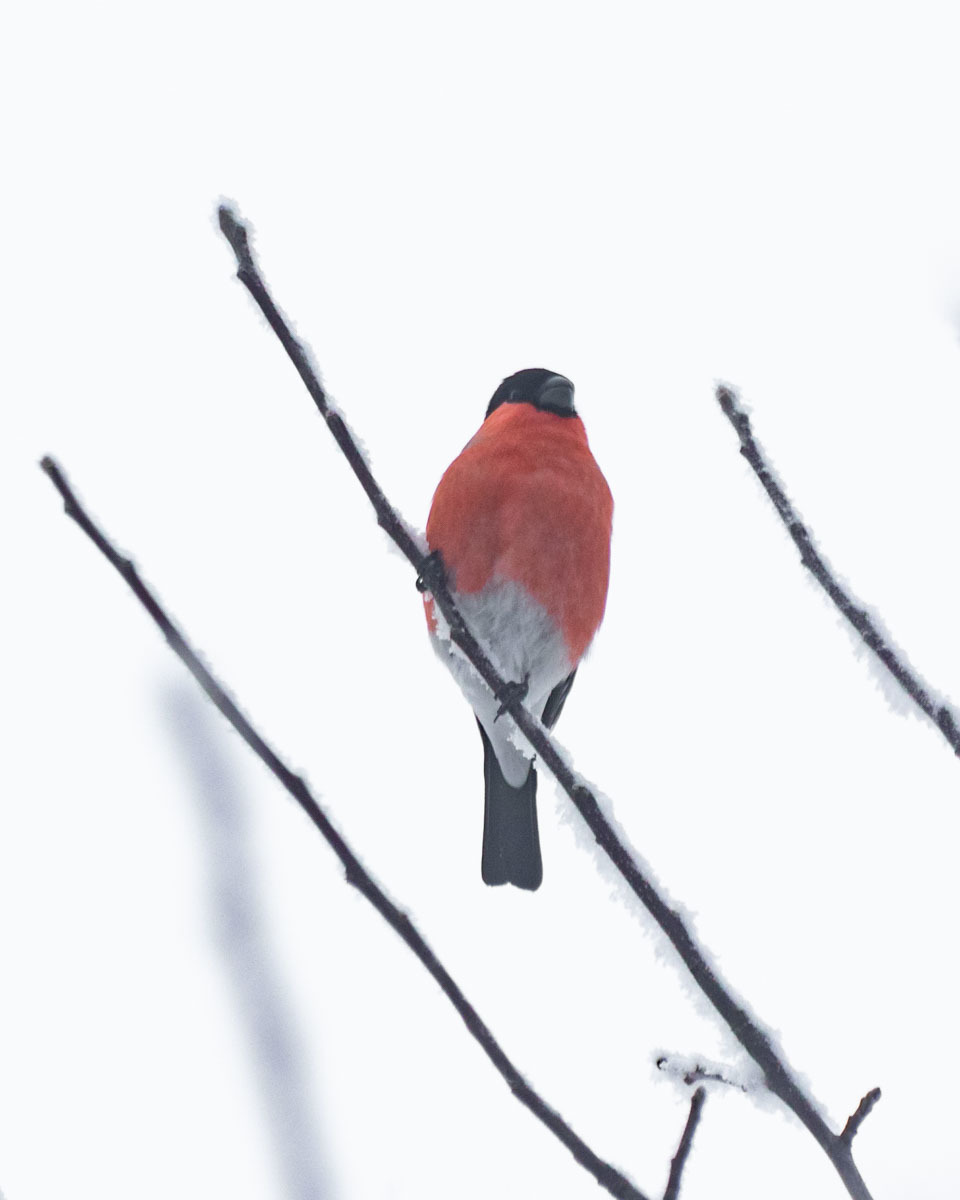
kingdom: Animalia
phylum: Chordata
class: Aves
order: Passeriformes
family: Fringillidae
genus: Pyrrhula
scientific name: Pyrrhula pyrrhula
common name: Eurasian bullfinch
